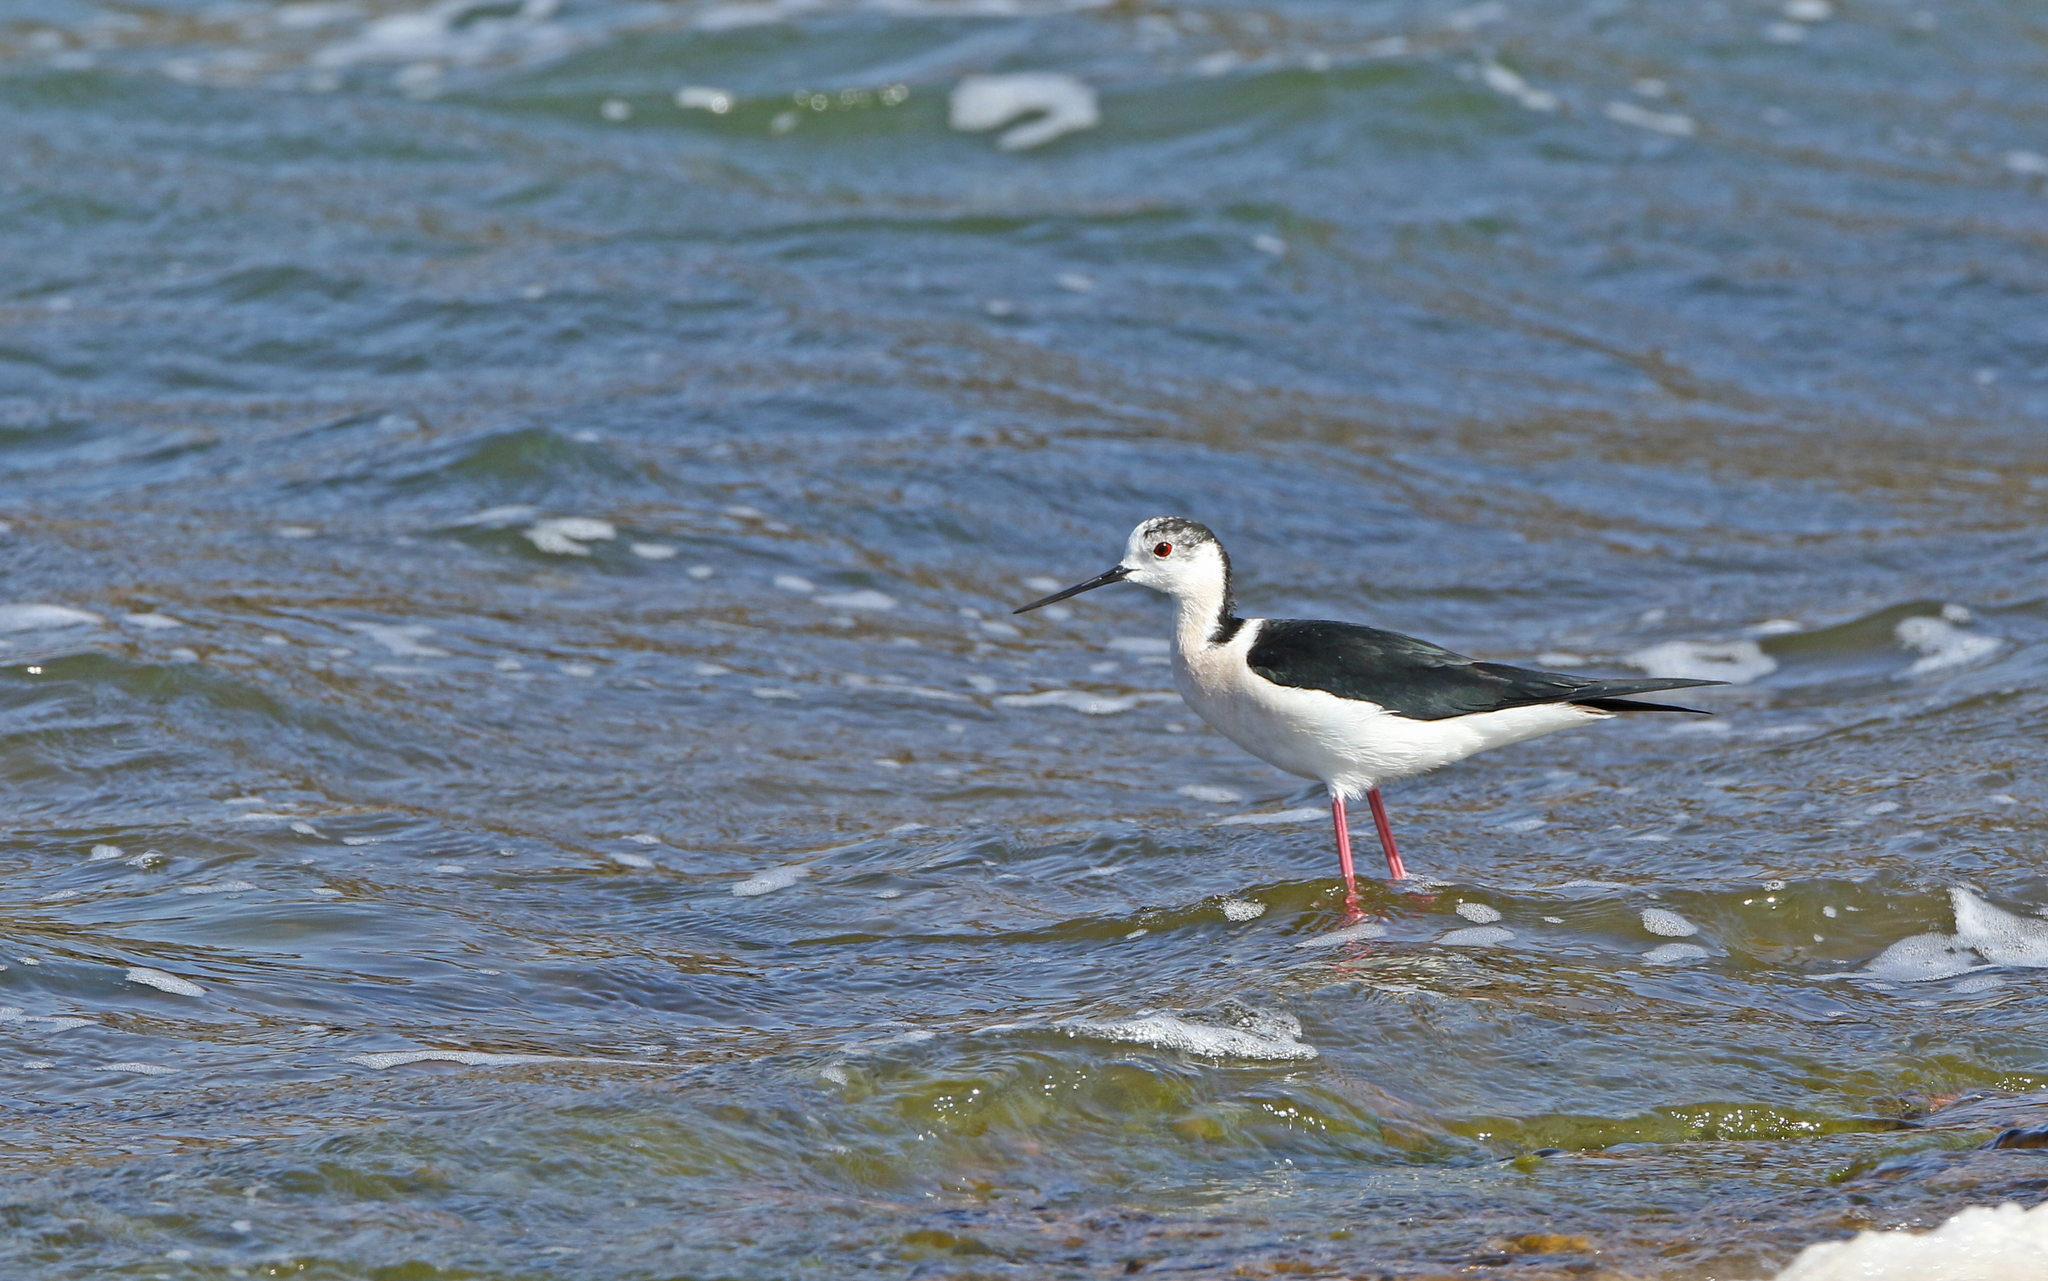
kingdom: Animalia
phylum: Chordata
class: Aves
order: Charadriiformes
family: Recurvirostridae
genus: Himantopus
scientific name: Himantopus himantopus
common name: Black-winged stilt
